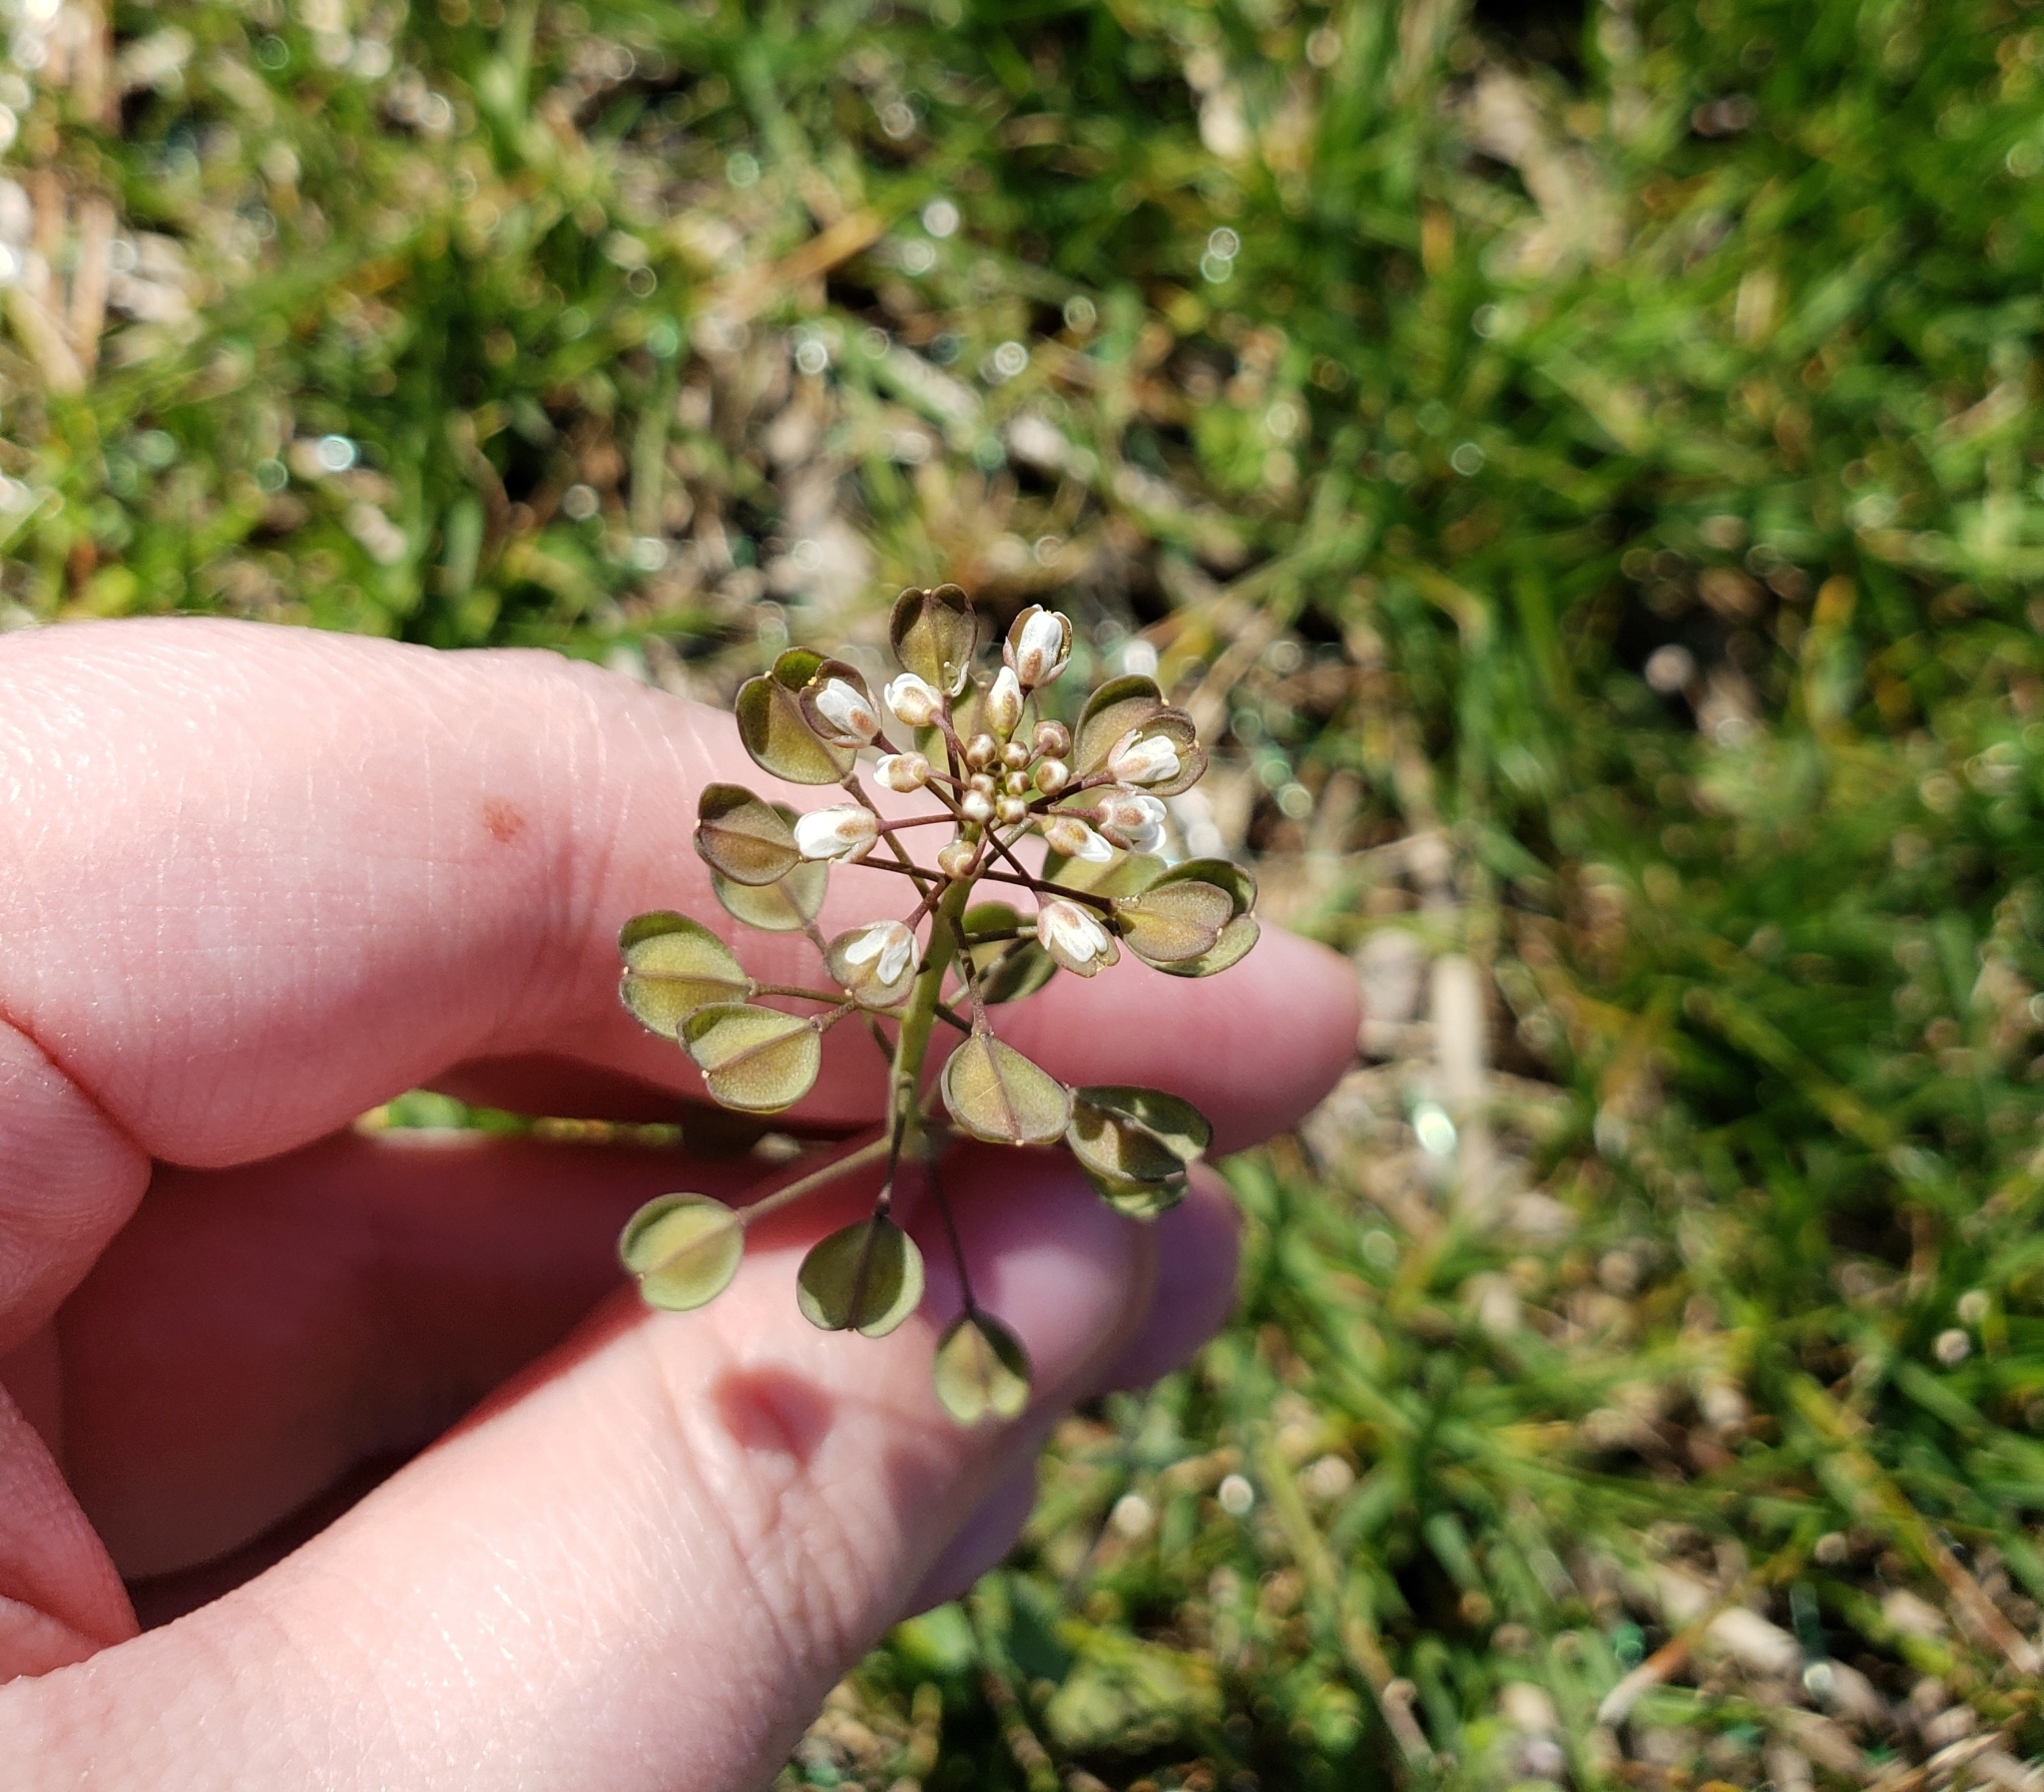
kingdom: Plantae
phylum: Tracheophyta
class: Magnoliopsida
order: Brassicales
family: Brassicaceae
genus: Noccaea
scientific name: Noccaea perfoliata
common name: Perfoliate pennycress
